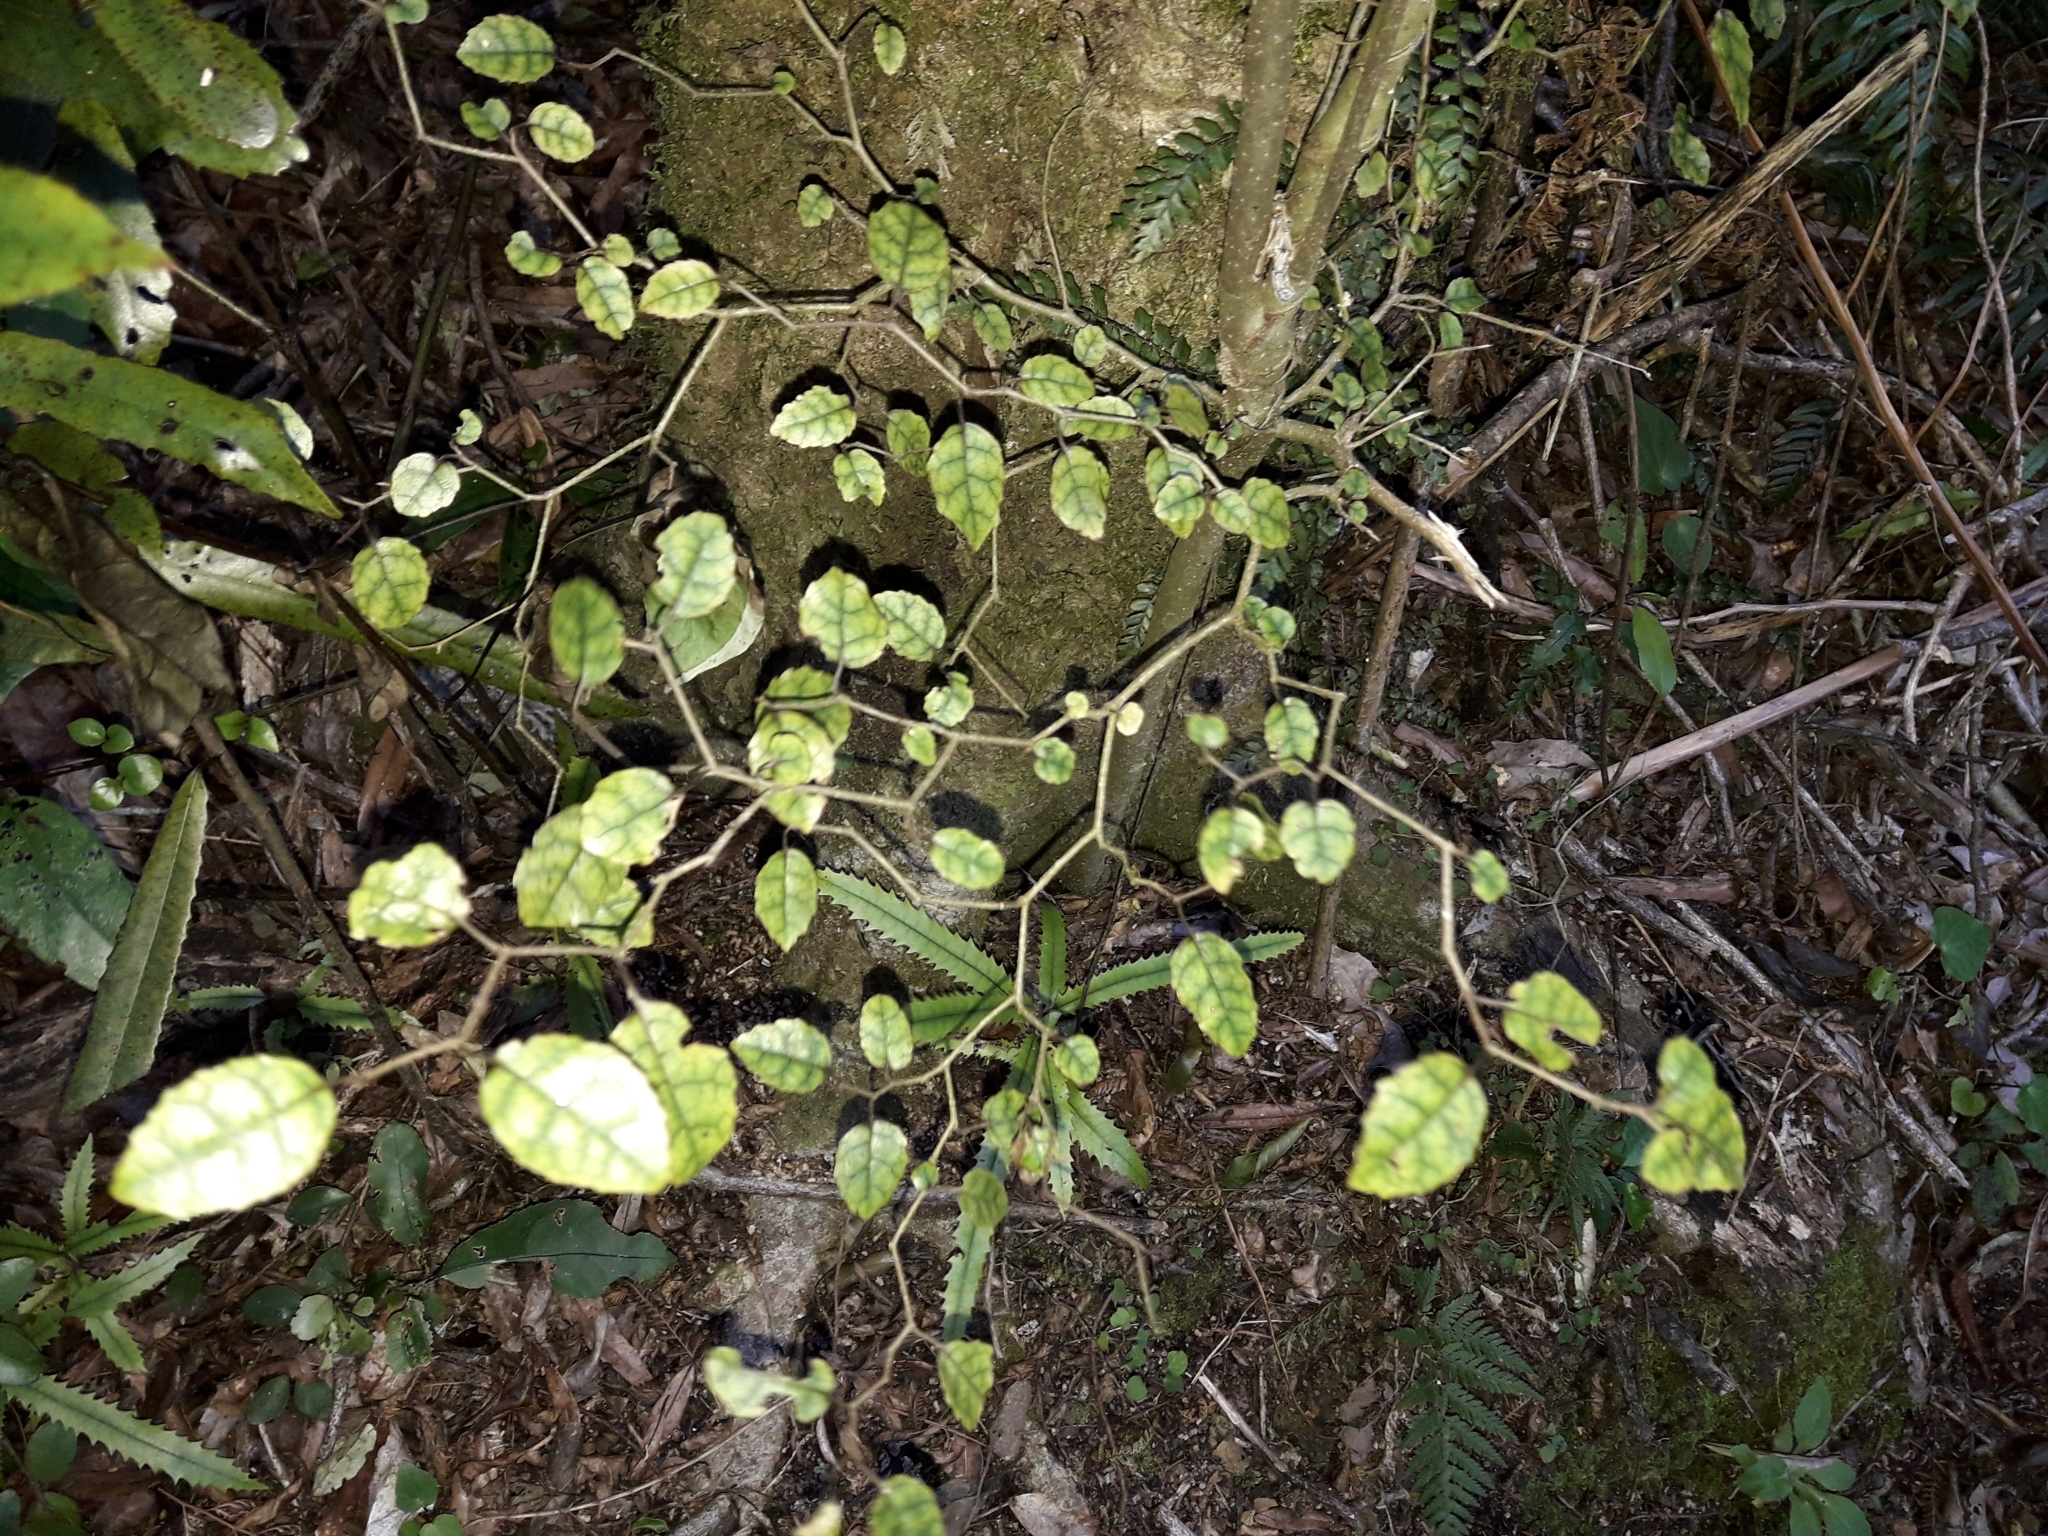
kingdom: Plantae
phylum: Tracheophyta
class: Magnoliopsida
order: Asterales
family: Rousseaceae
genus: Carpodetus
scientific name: Carpodetus serratus
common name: White mapau
